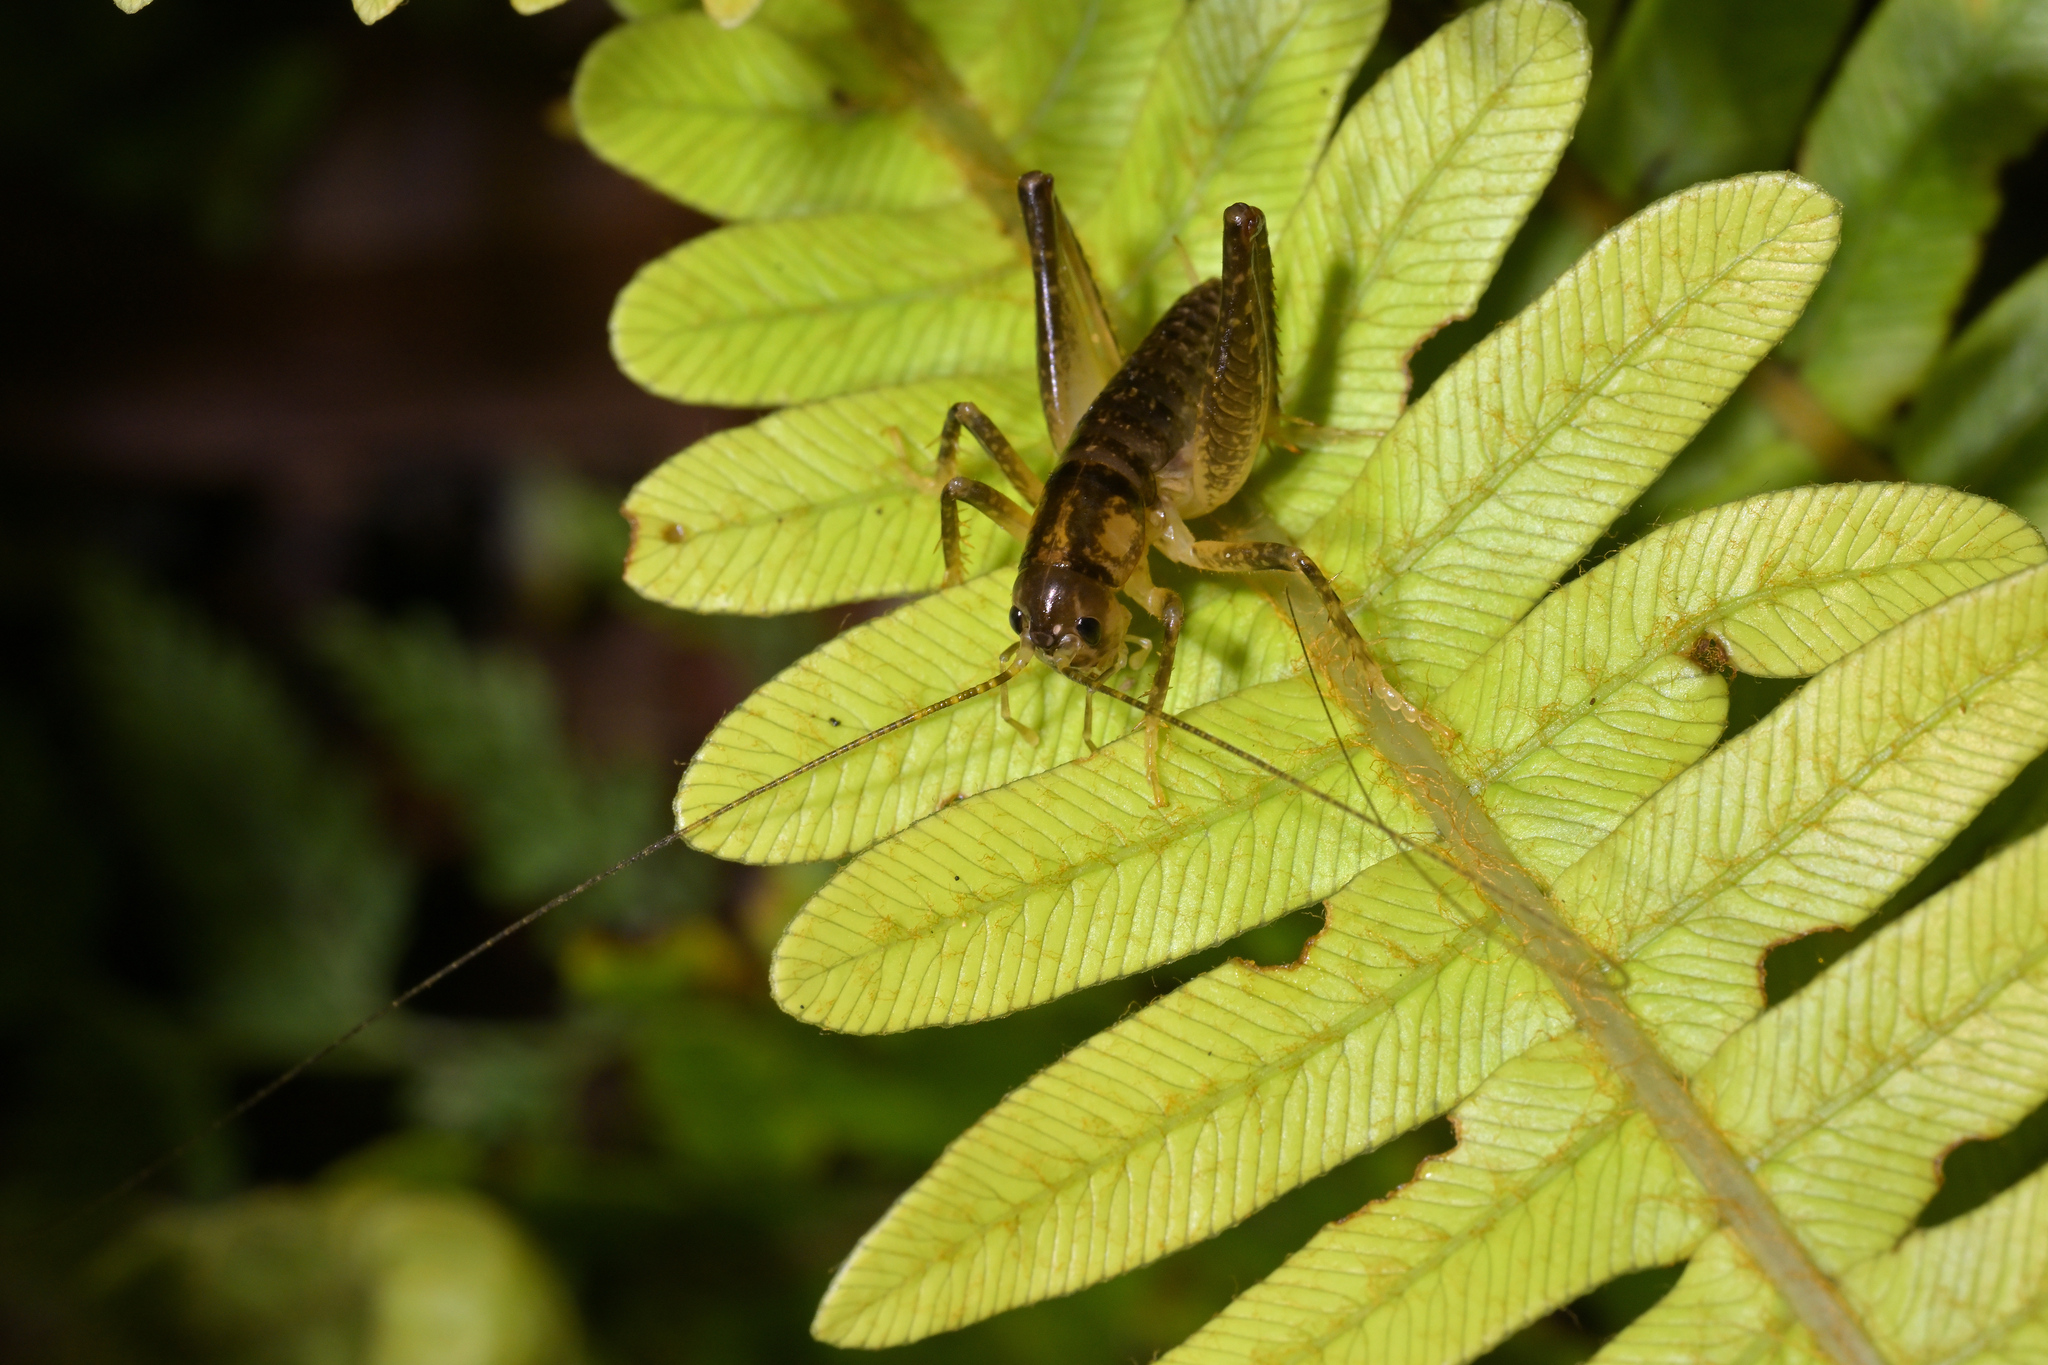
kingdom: Animalia
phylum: Arthropoda
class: Insecta
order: Orthoptera
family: Anostostomatidae
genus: Hemiandrus
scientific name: Hemiandrus maculifrons
